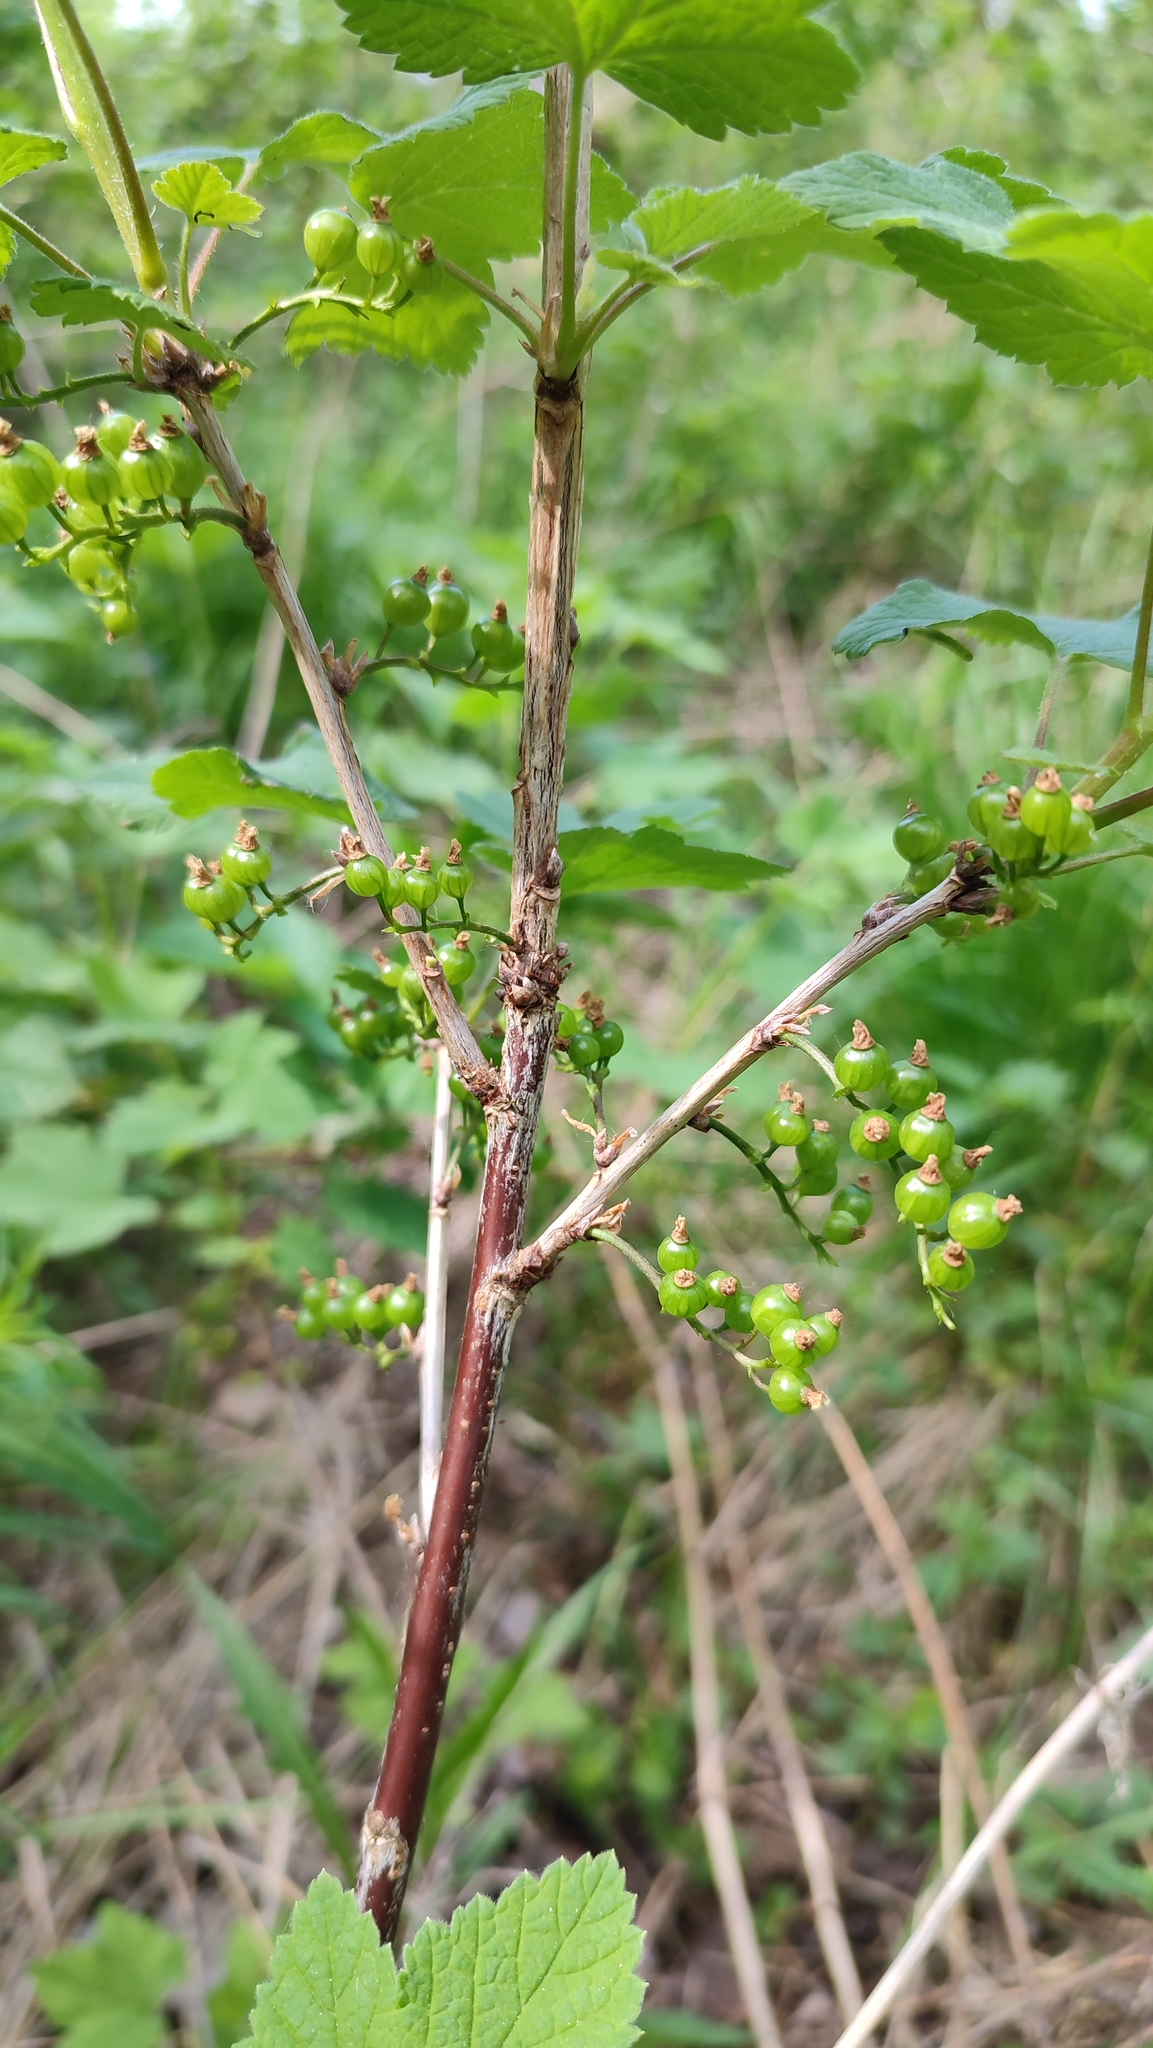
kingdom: Plantae
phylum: Tracheophyta
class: Magnoliopsida
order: Saxifragales
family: Grossulariaceae
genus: Ribes
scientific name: Ribes nigrum
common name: Black currant
